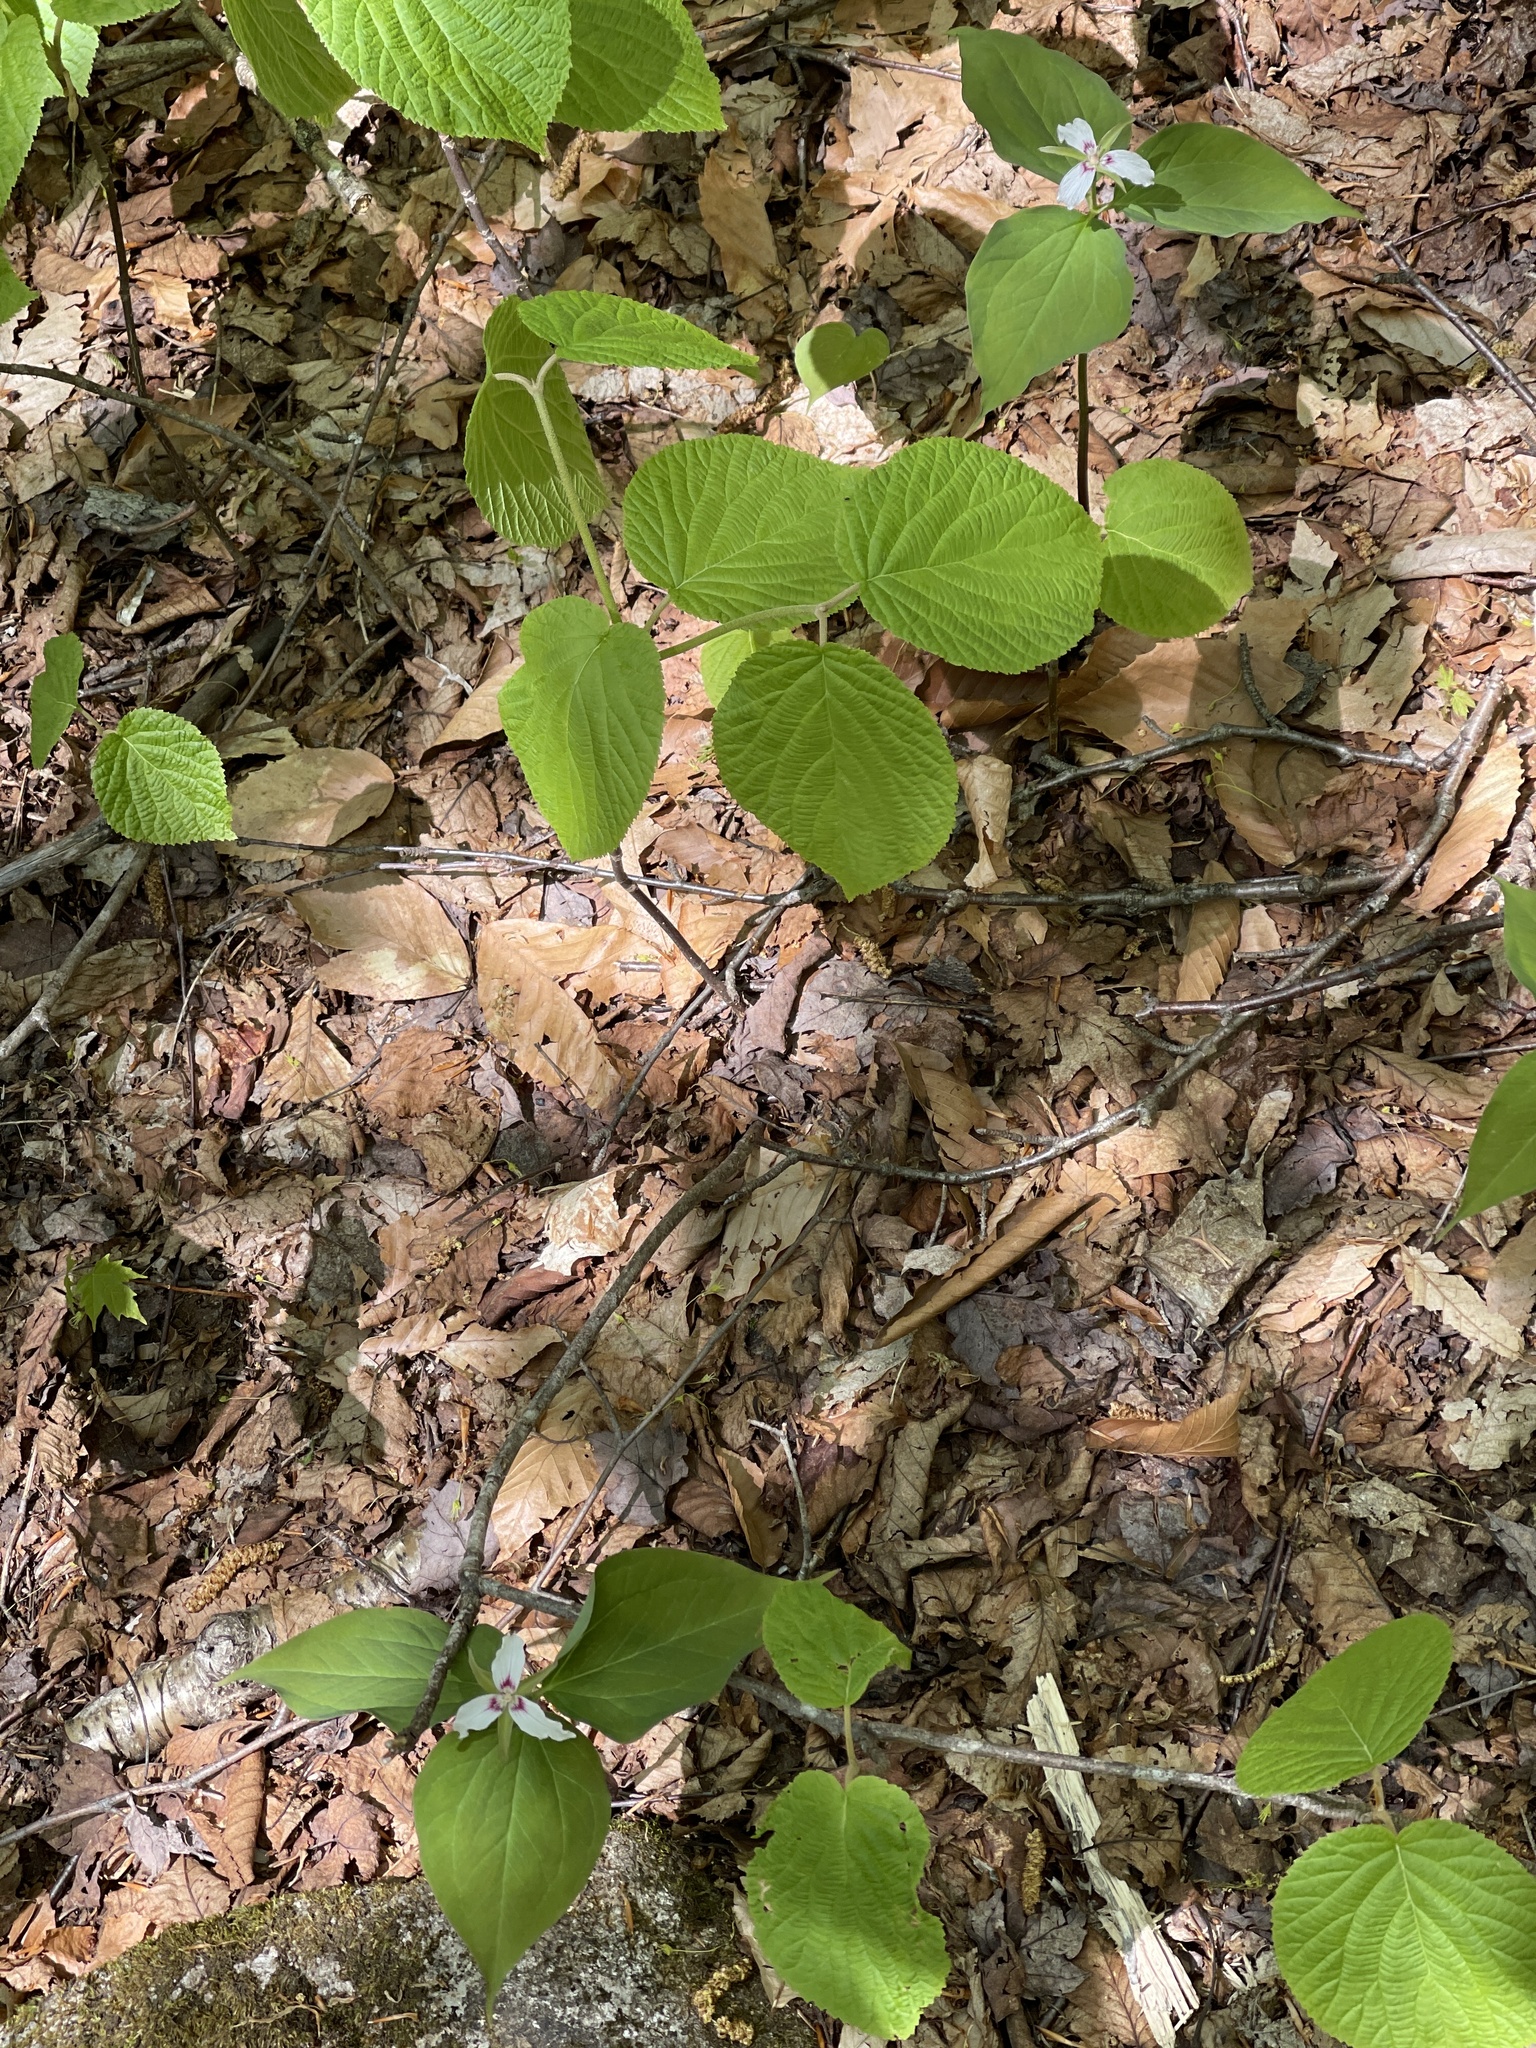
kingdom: Plantae
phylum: Tracheophyta
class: Liliopsida
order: Liliales
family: Melanthiaceae
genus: Trillium
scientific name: Trillium undulatum
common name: Paint trillium
